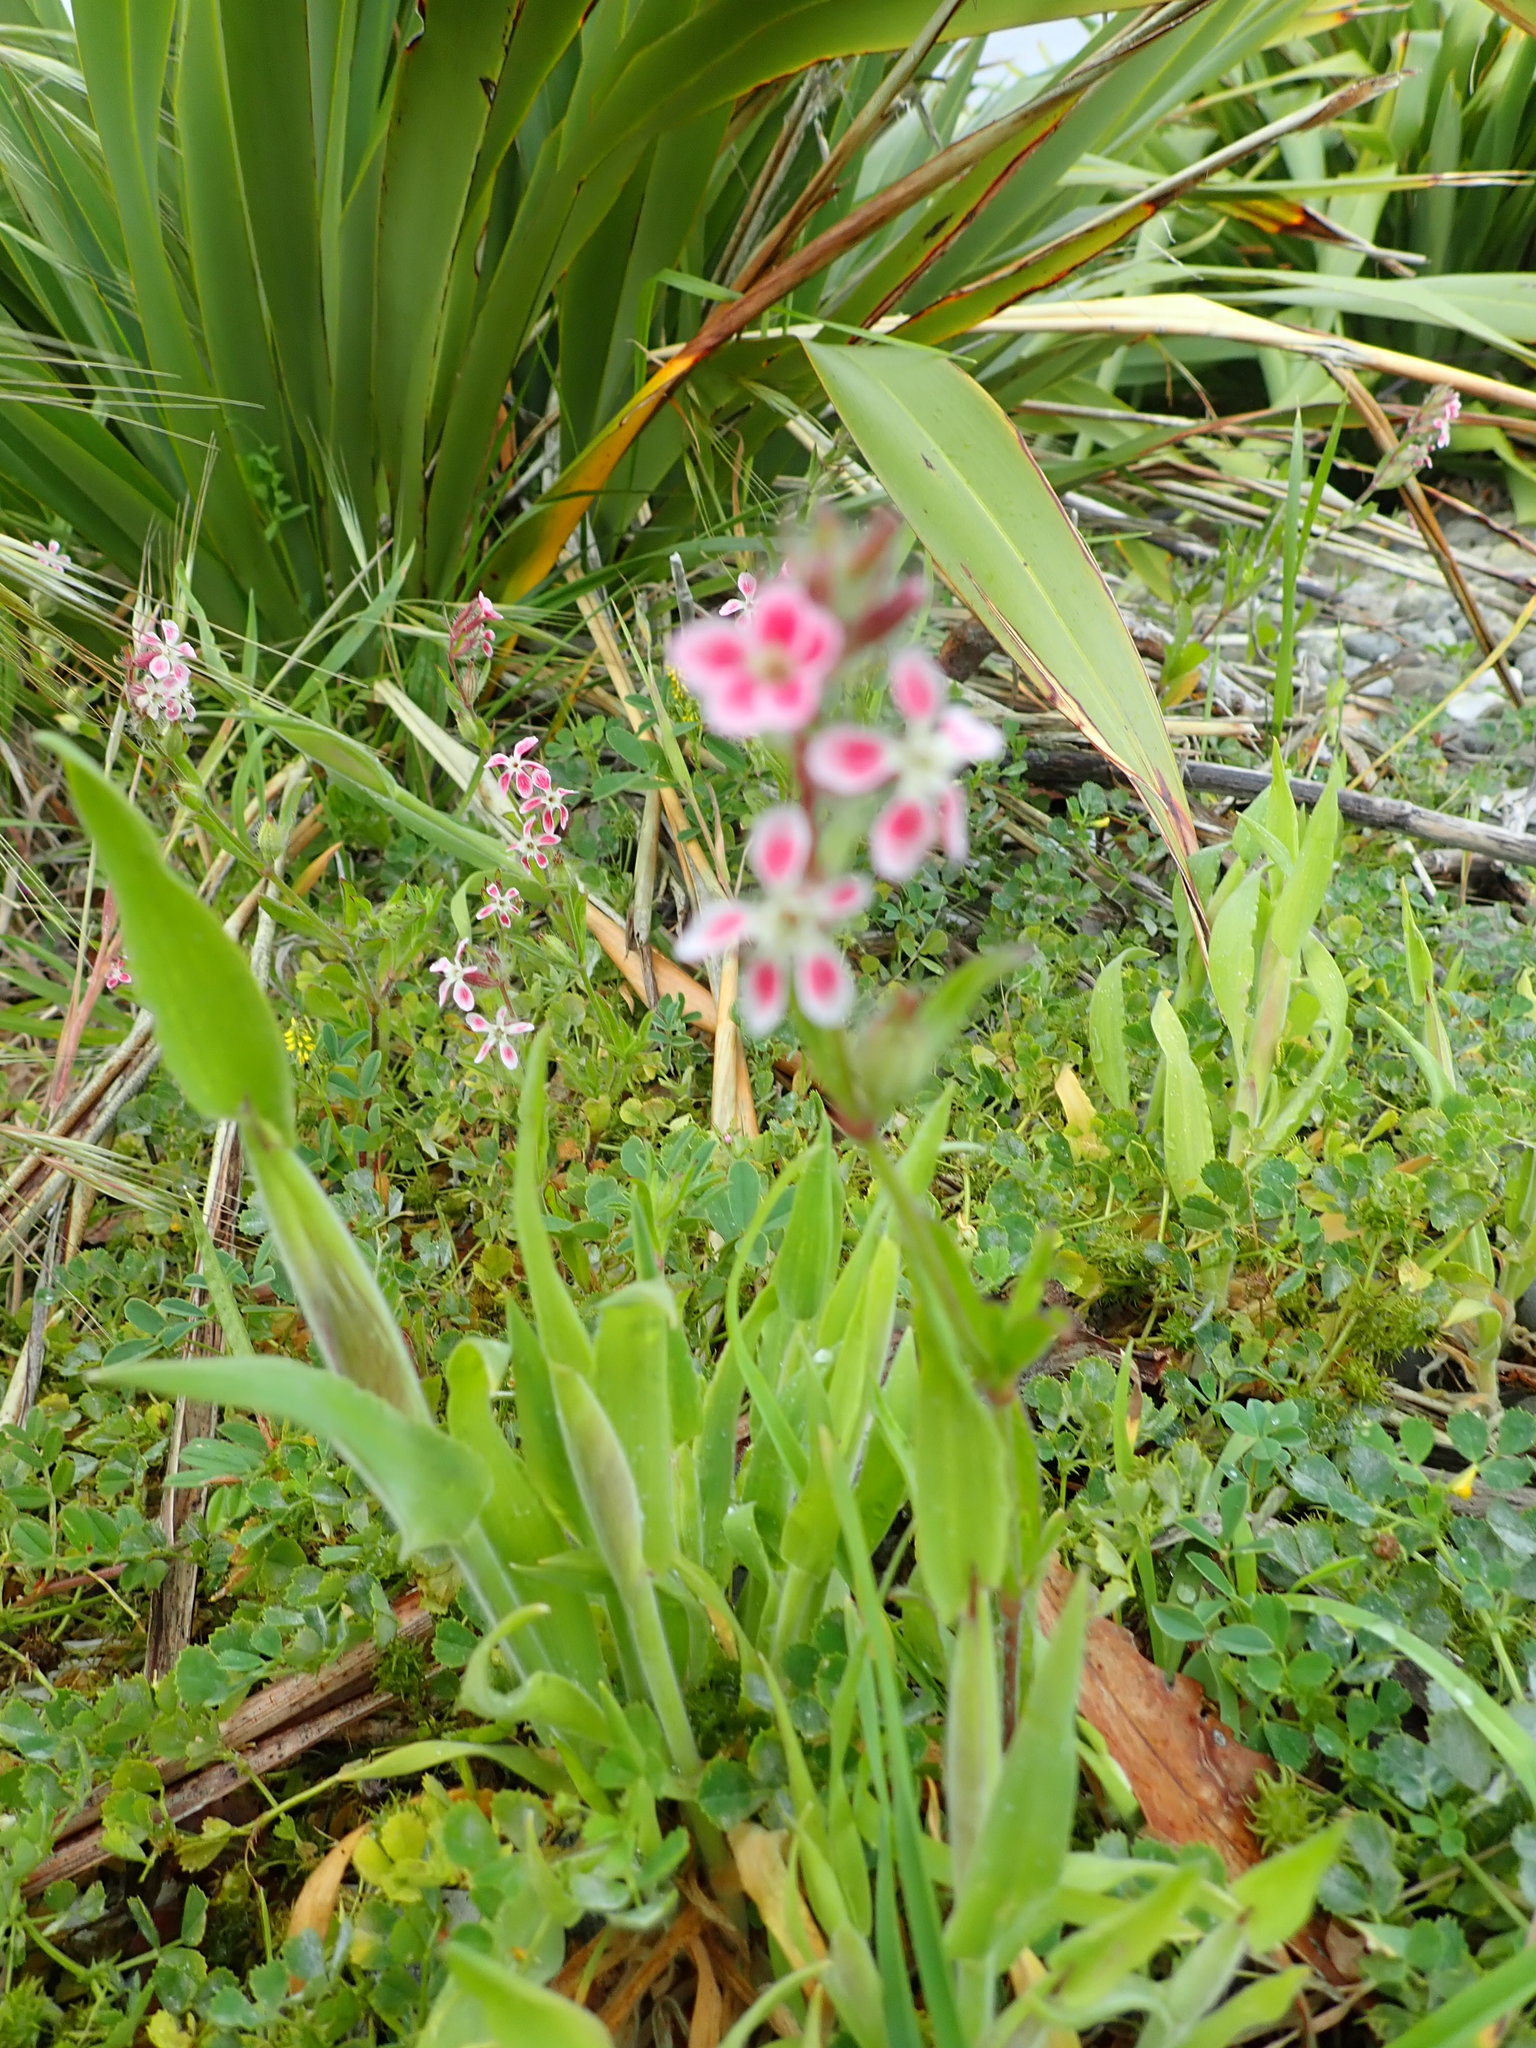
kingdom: Plantae
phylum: Tracheophyta
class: Magnoliopsida
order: Caryophyllales
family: Caryophyllaceae
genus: Silene
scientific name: Silene gallica
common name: Small-flowered catchfly
